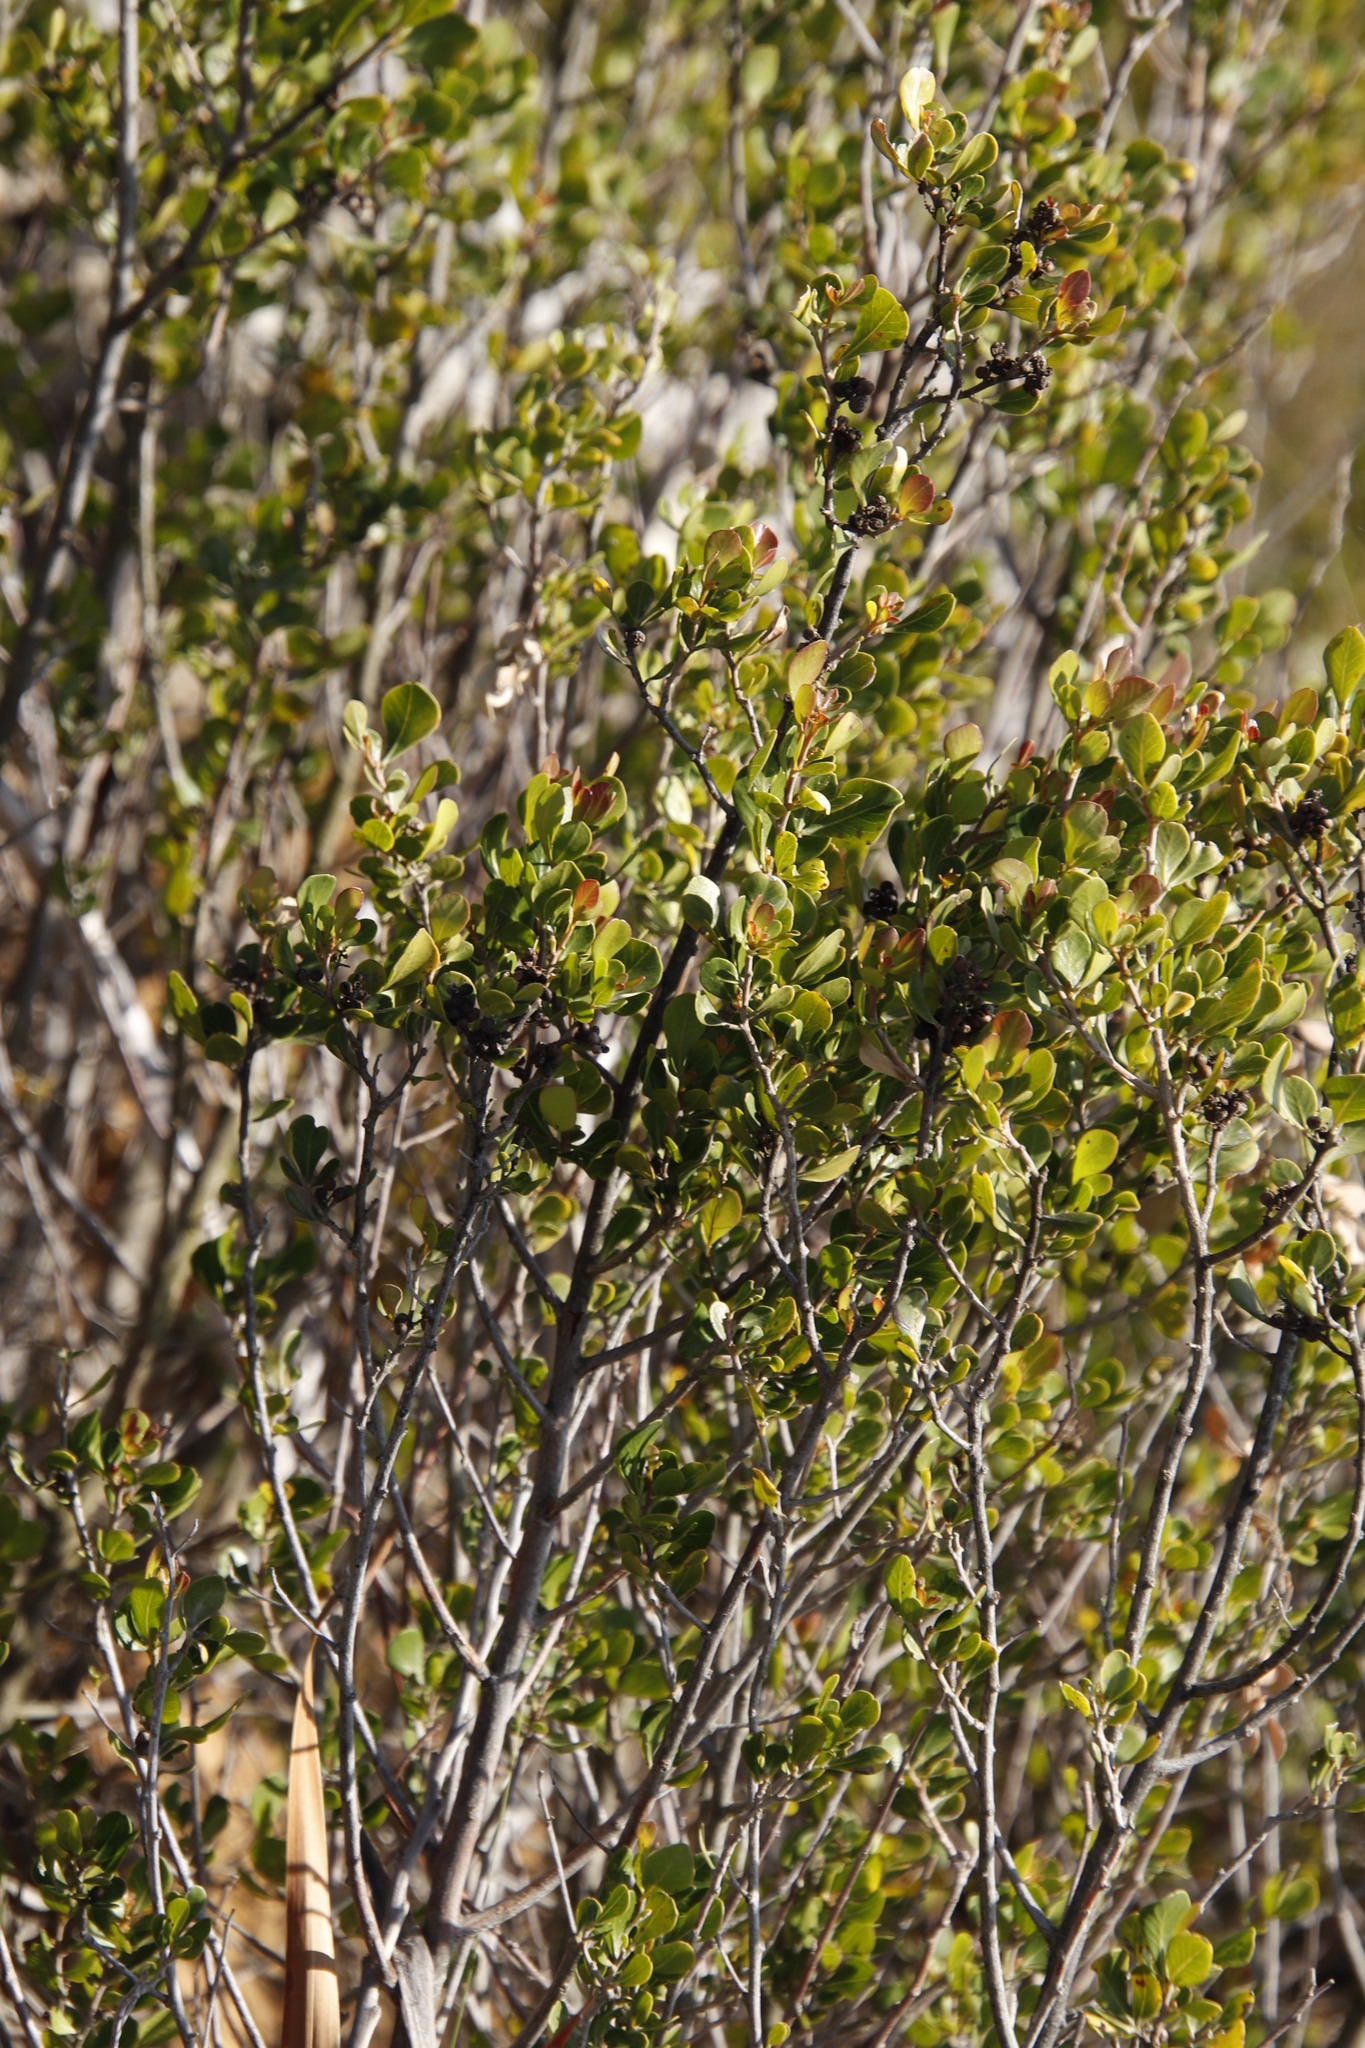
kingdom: Plantae
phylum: Tracheophyta
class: Magnoliopsida
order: Sapindales
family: Anacardiaceae
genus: Searsia
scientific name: Searsia lucida
